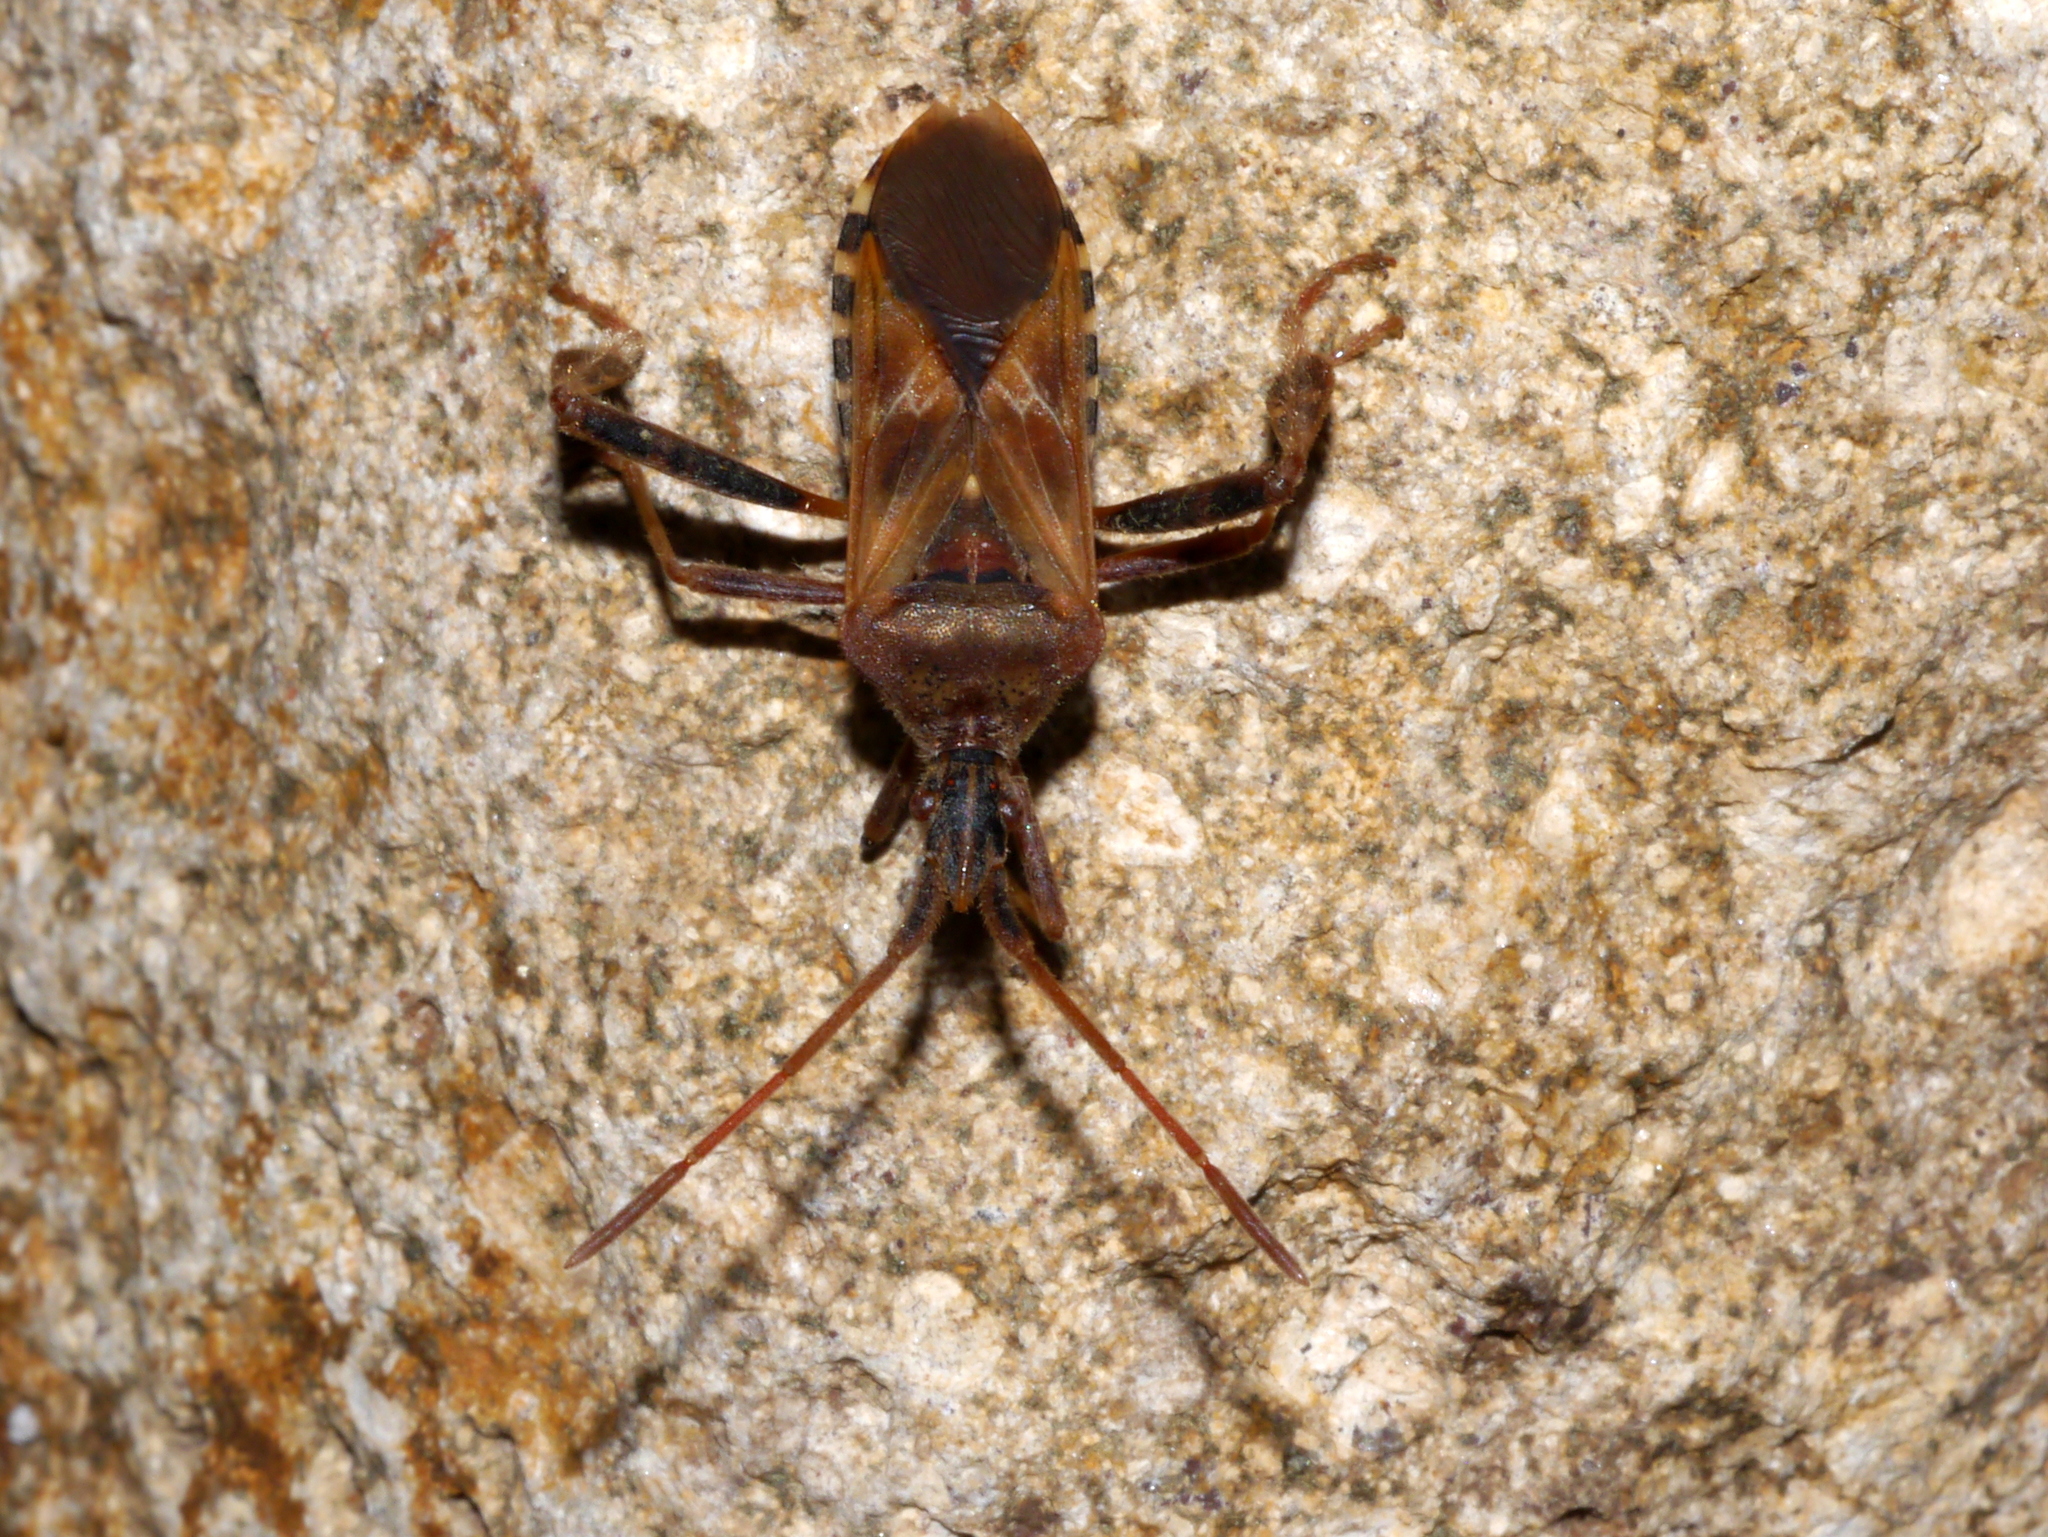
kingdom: Animalia
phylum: Arthropoda
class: Insecta
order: Hemiptera
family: Coreidae
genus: Leptoglossus
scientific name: Leptoglossus occidentalis
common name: Western conifer-seed bug
